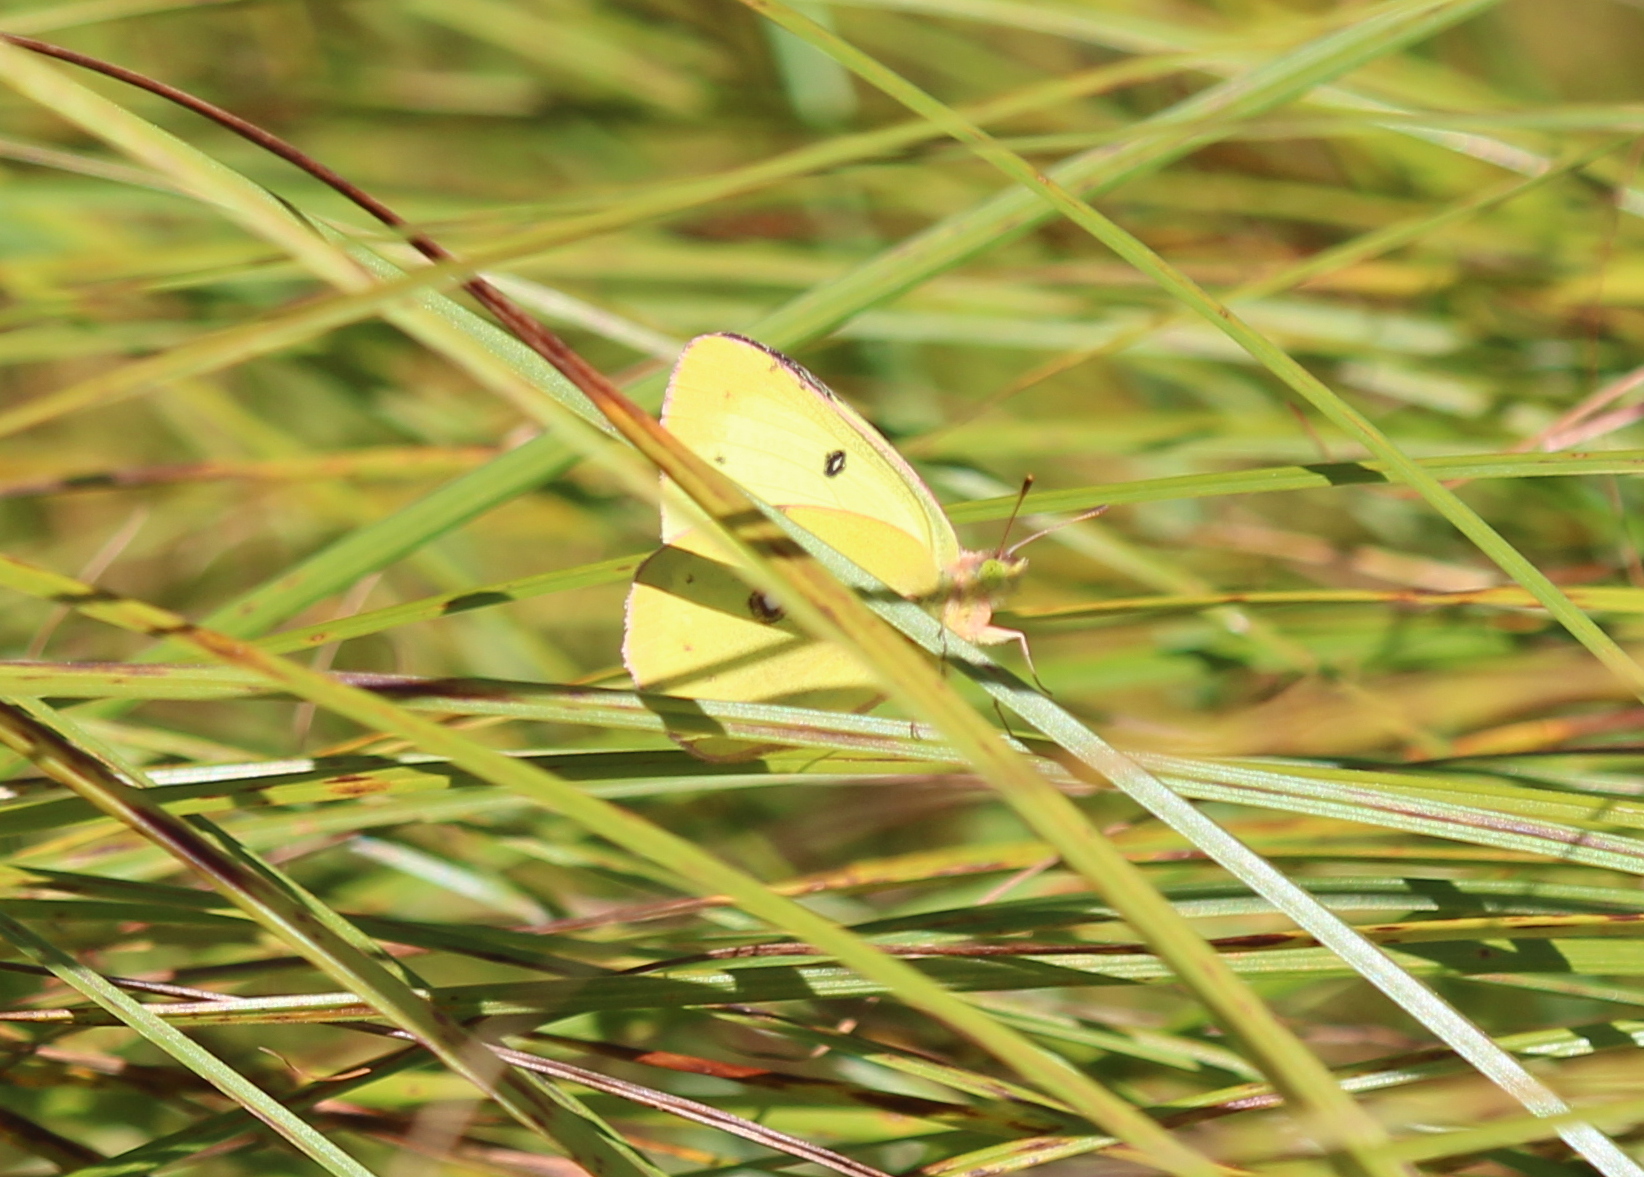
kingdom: Animalia
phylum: Arthropoda
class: Insecta
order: Lepidoptera
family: Pieridae
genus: Colias
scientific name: Colias philodice
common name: Clouded sulphur
